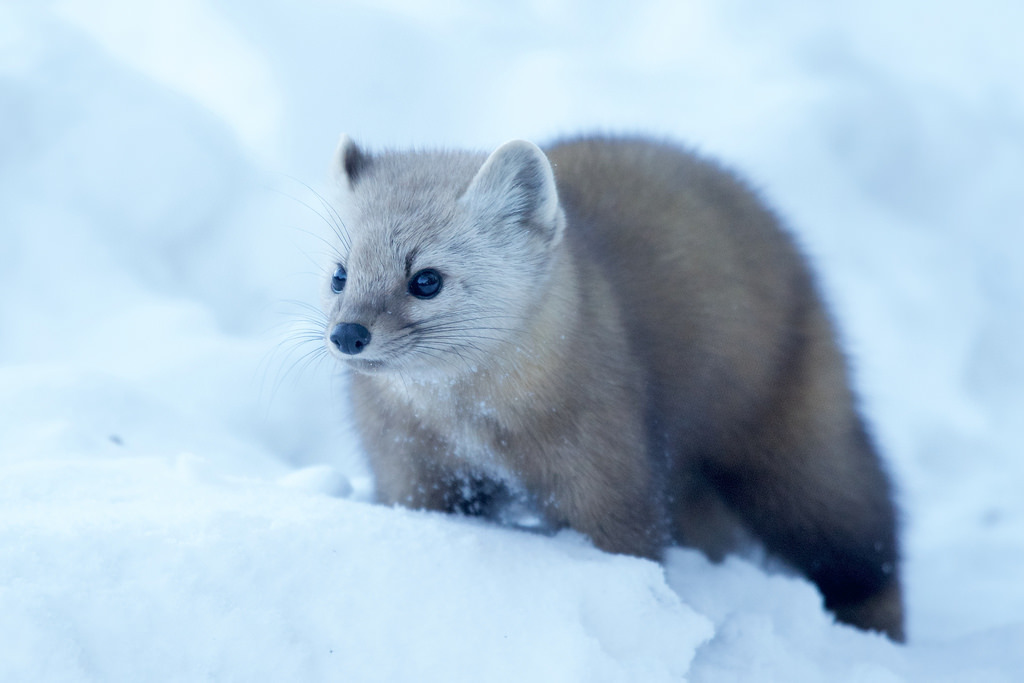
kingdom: Animalia
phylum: Chordata
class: Mammalia
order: Carnivora
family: Mustelidae
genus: Martes
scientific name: Martes americana
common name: American marten
